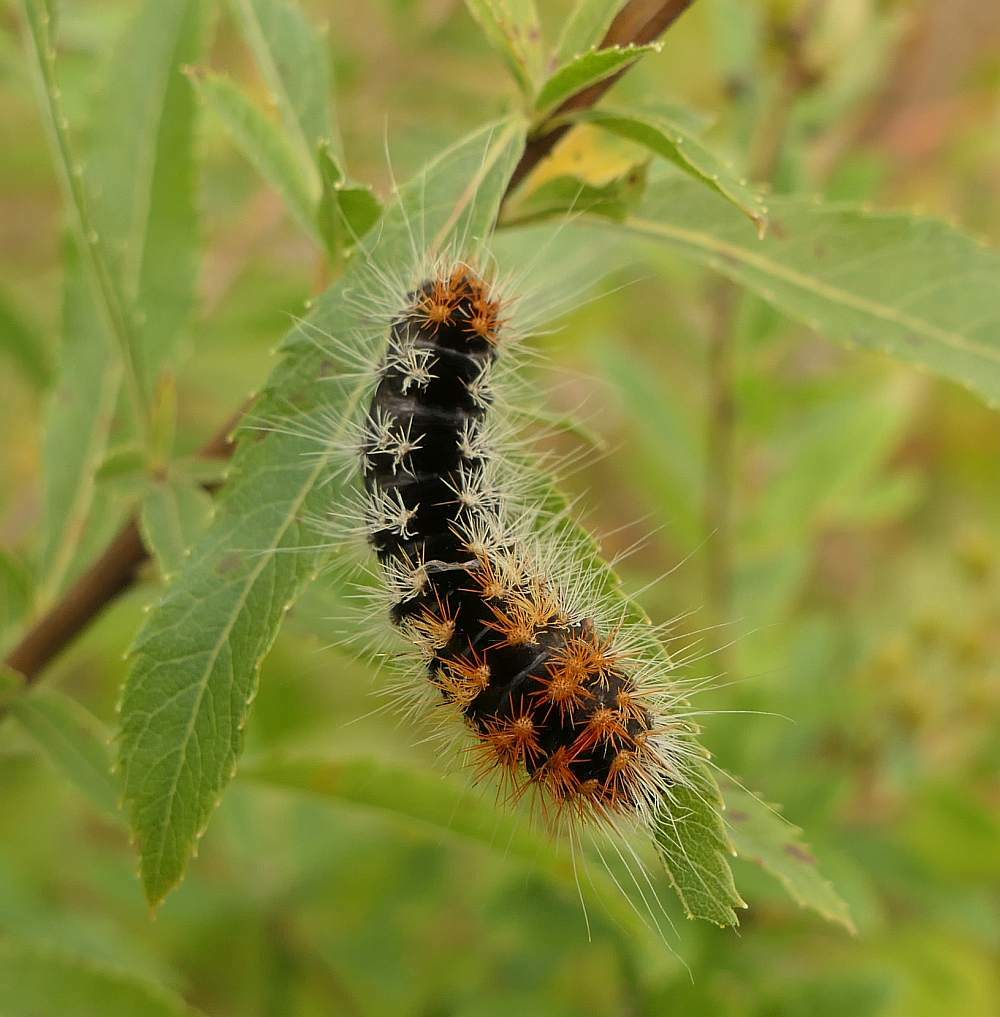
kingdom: Animalia
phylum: Arthropoda
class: Insecta
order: Lepidoptera
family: Noctuidae
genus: Acronicta
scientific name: Acronicta impressa
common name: Impressed dagger
